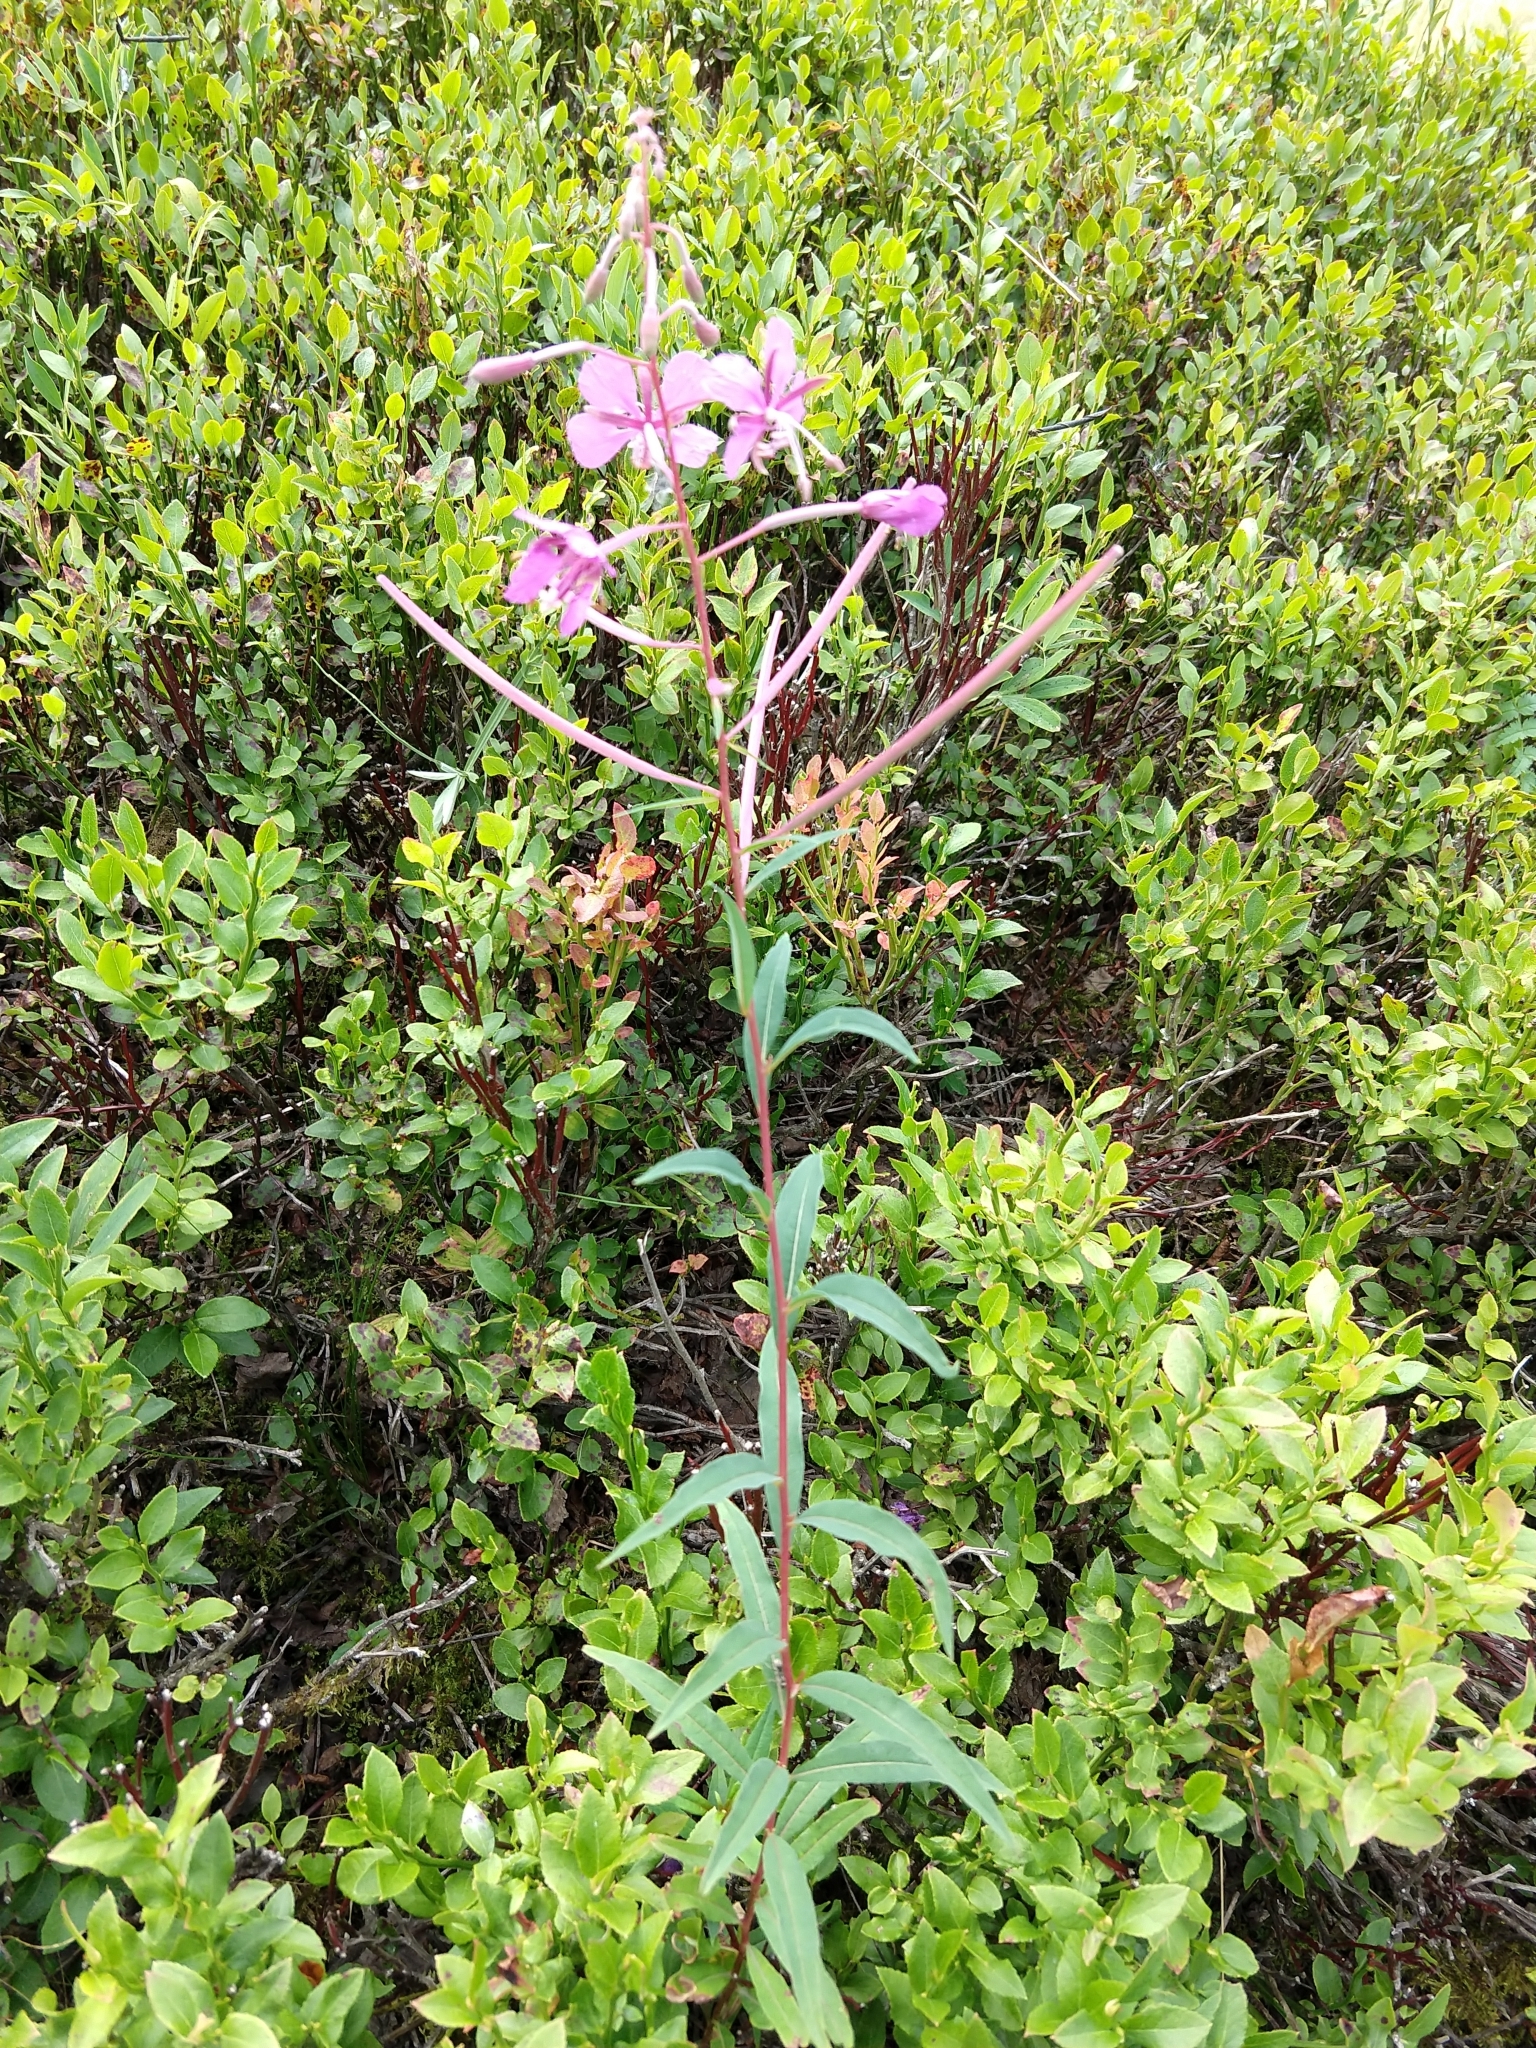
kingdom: Plantae
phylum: Tracheophyta
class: Magnoliopsida
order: Myrtales
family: Onagraceae
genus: Chamaenerion
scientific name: Chamaenerion angustifolium
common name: Fireweed
